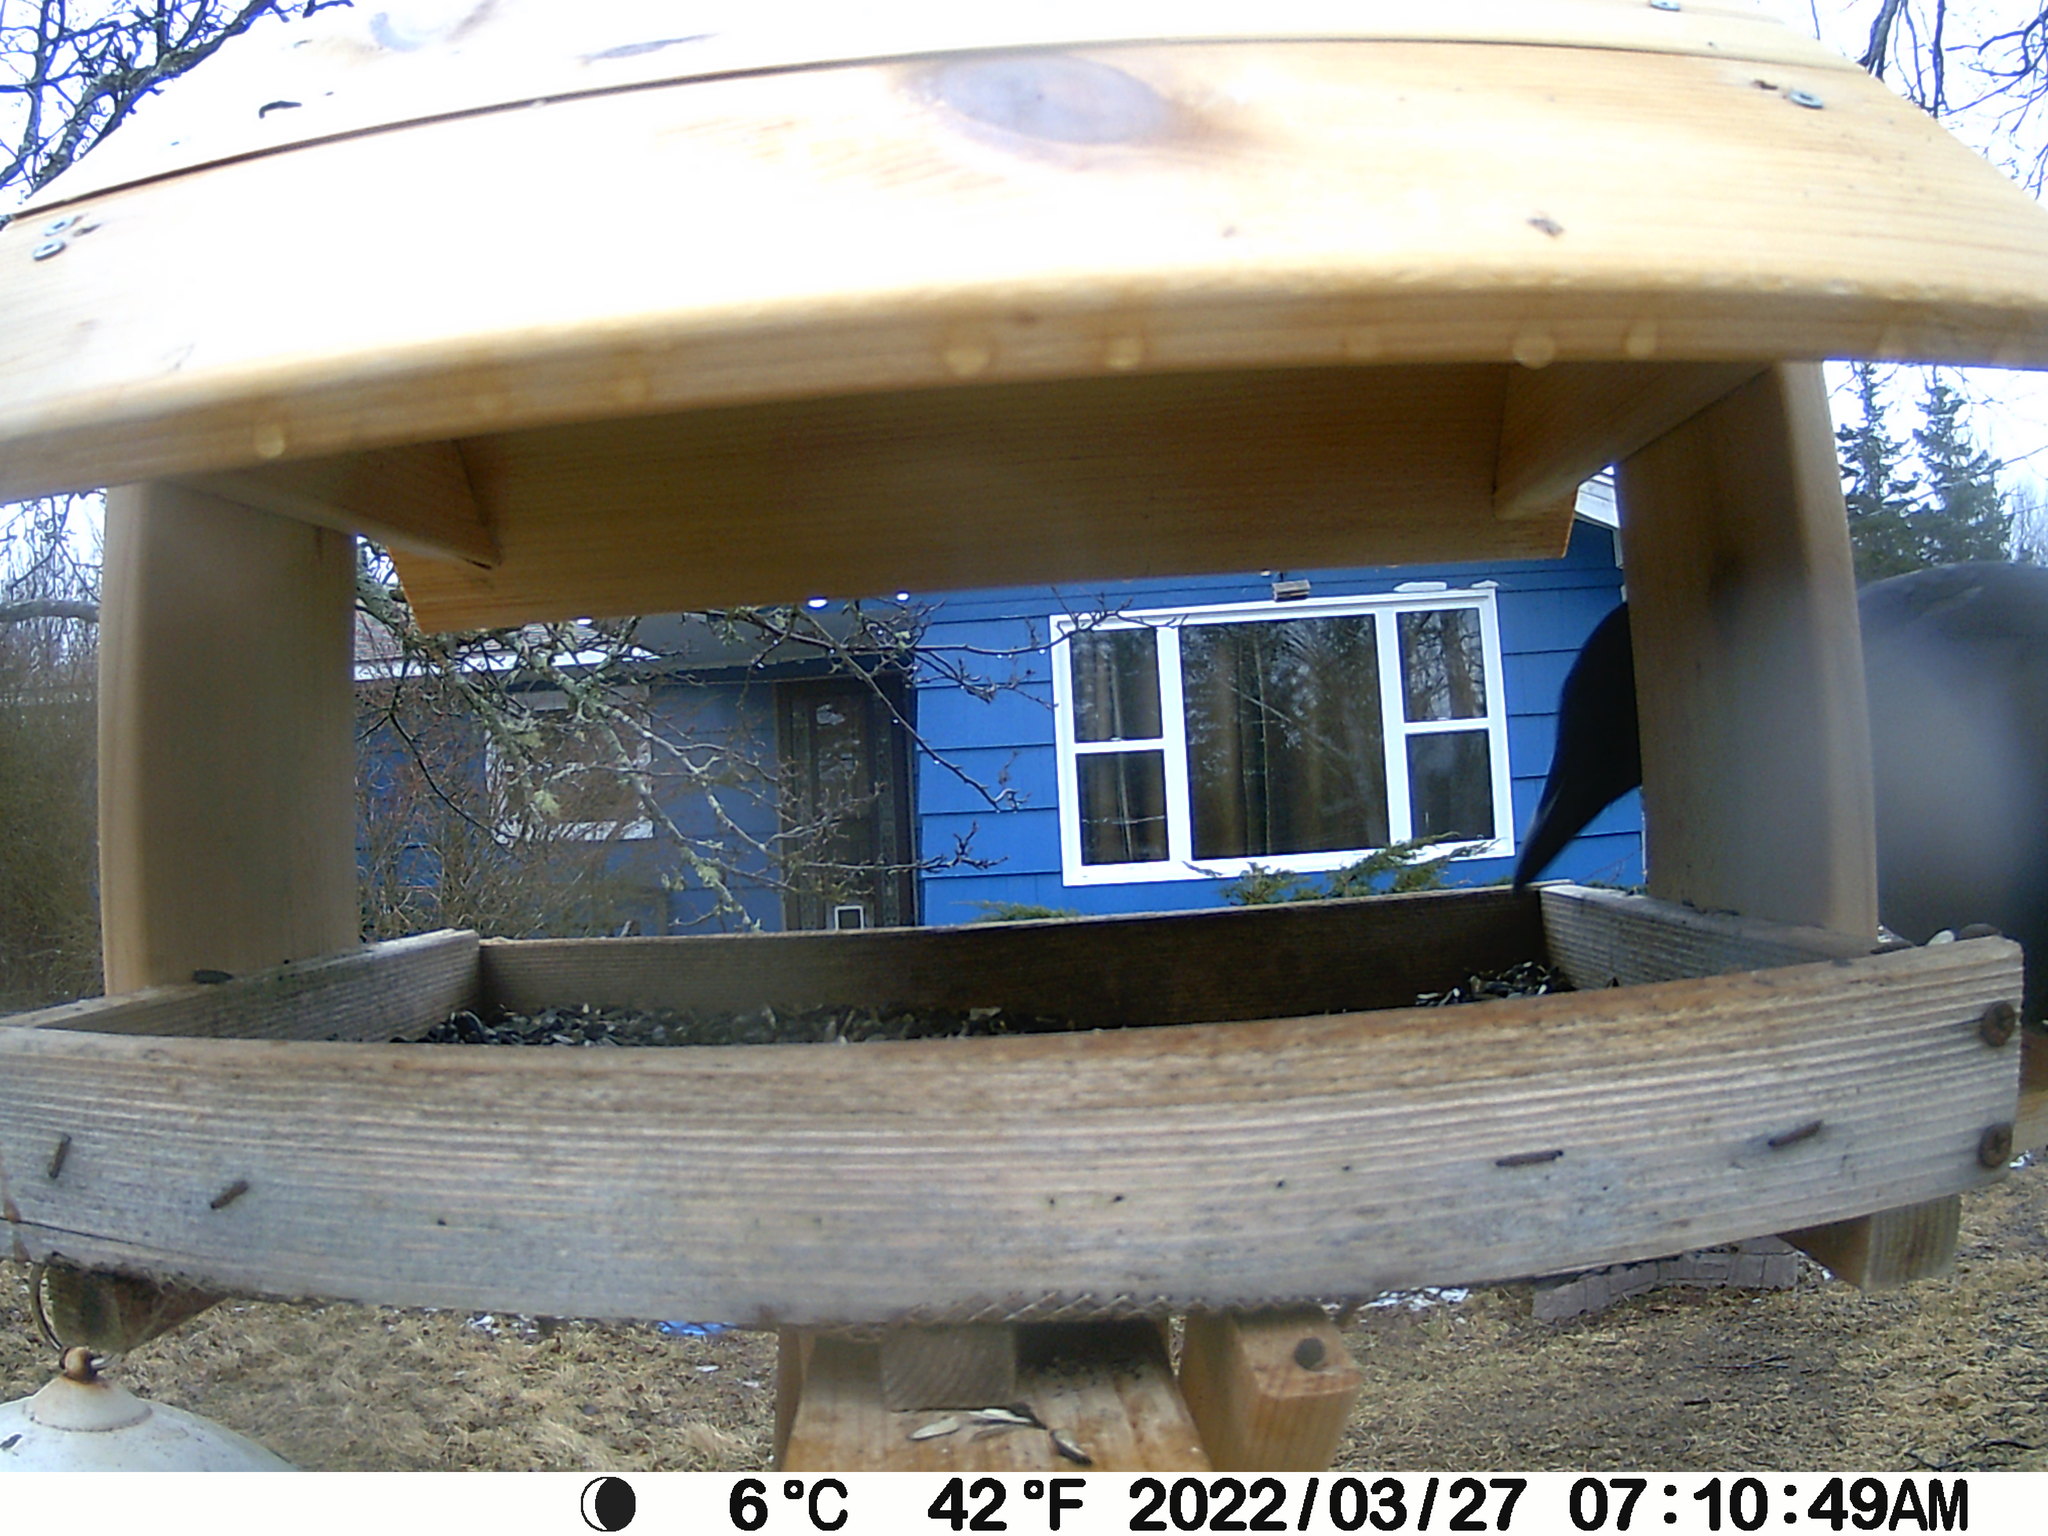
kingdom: Animalia
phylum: Chordata
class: Aves
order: Passeriformes
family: Corvidae
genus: Corvus
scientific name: Corvus brachyrhynchos
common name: American crow
